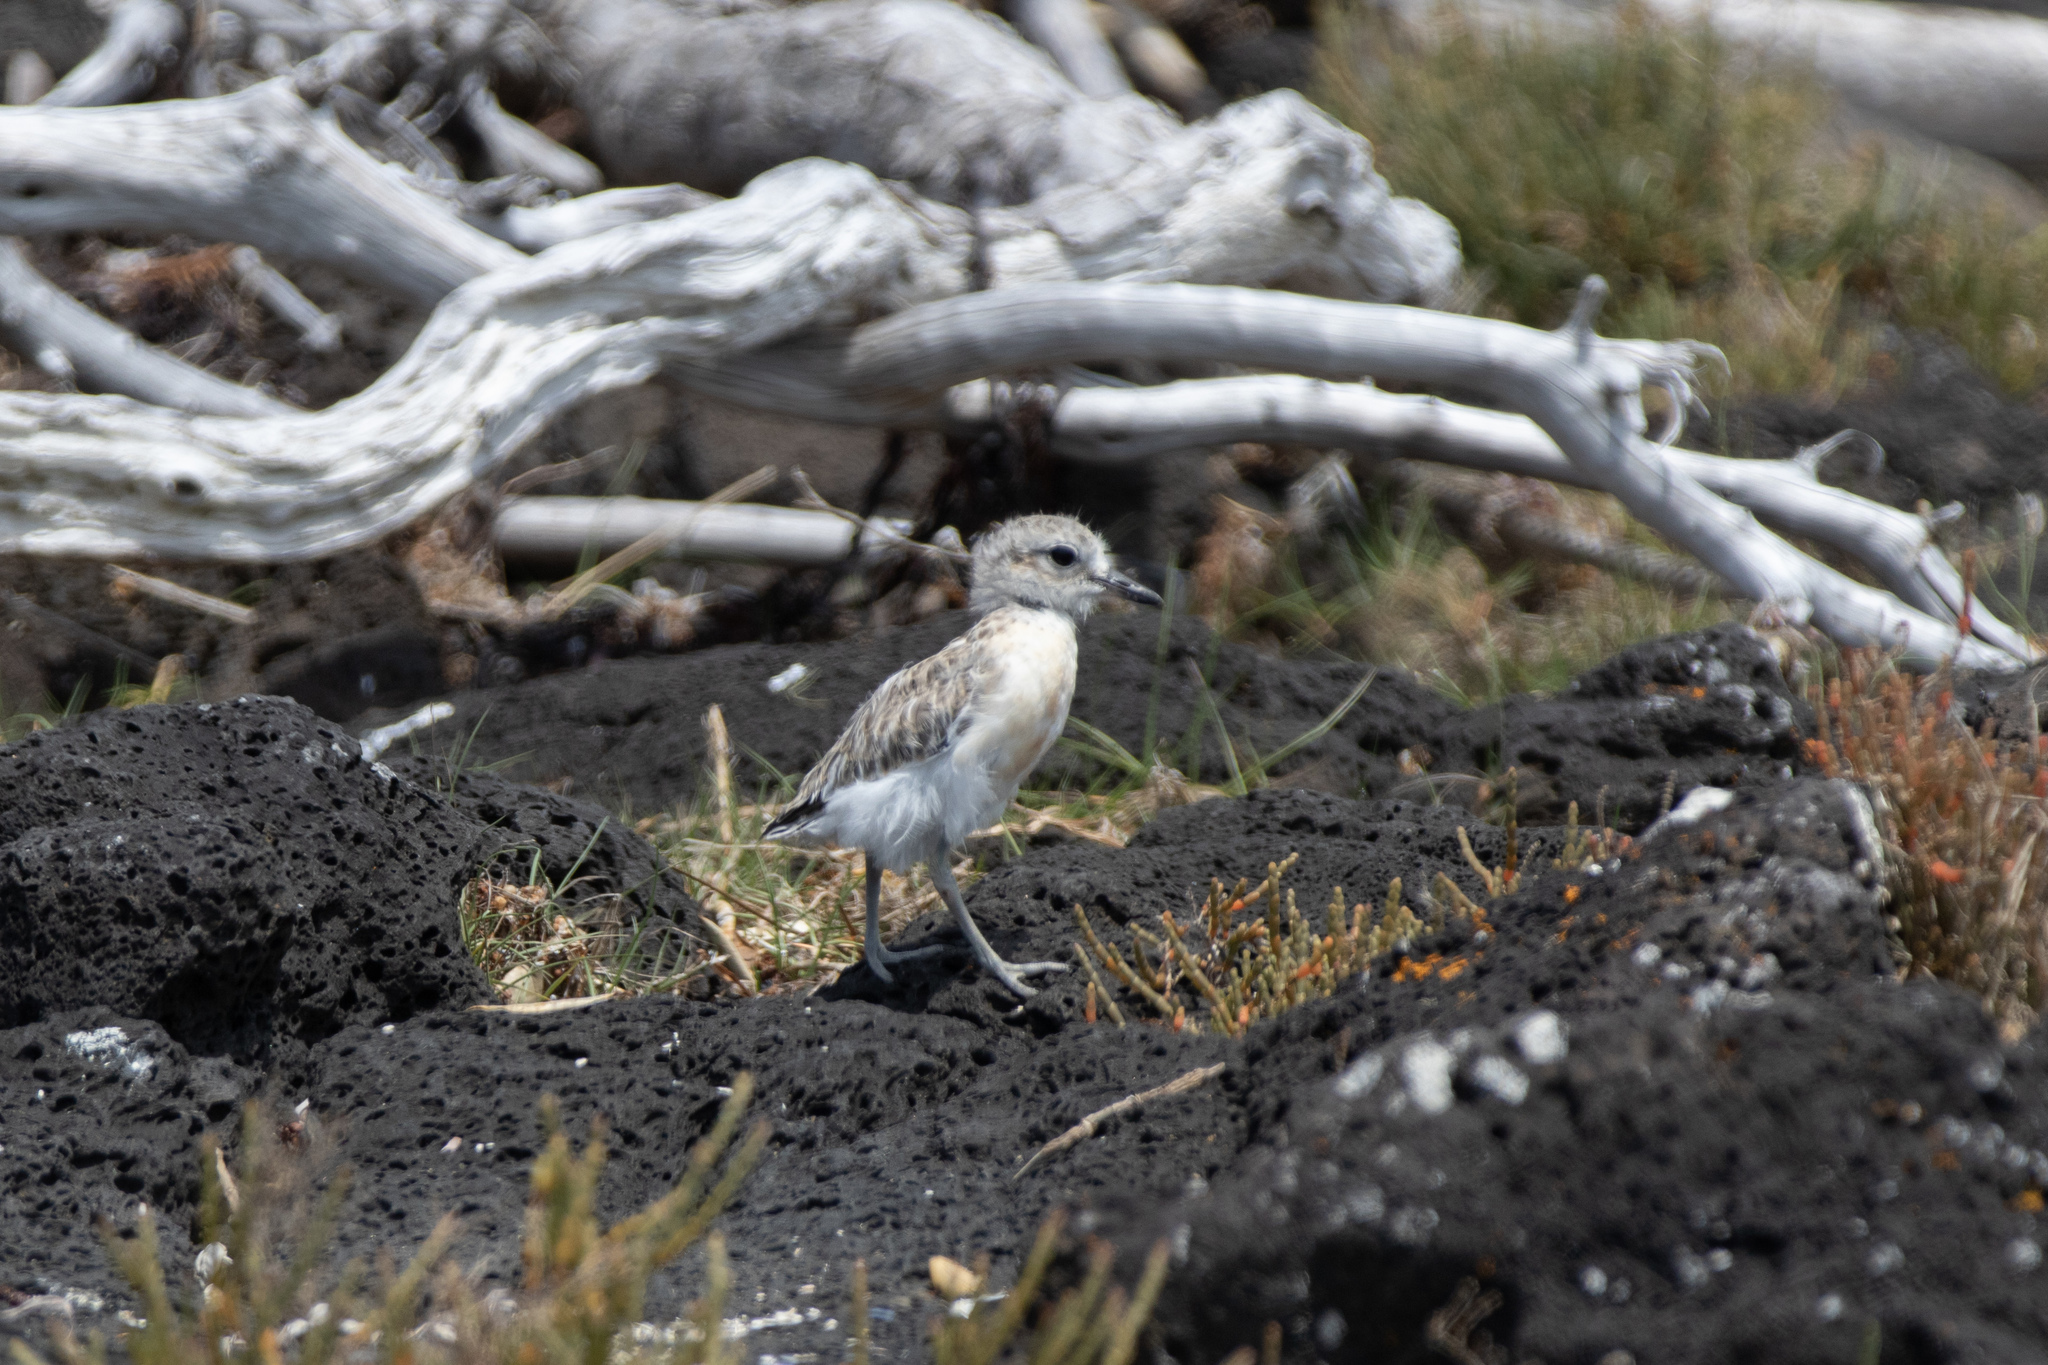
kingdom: Animalia
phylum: Chordata
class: Aves
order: Charadriiformes
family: Charadriidae
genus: Anarhynchus
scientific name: Anarhynchus
